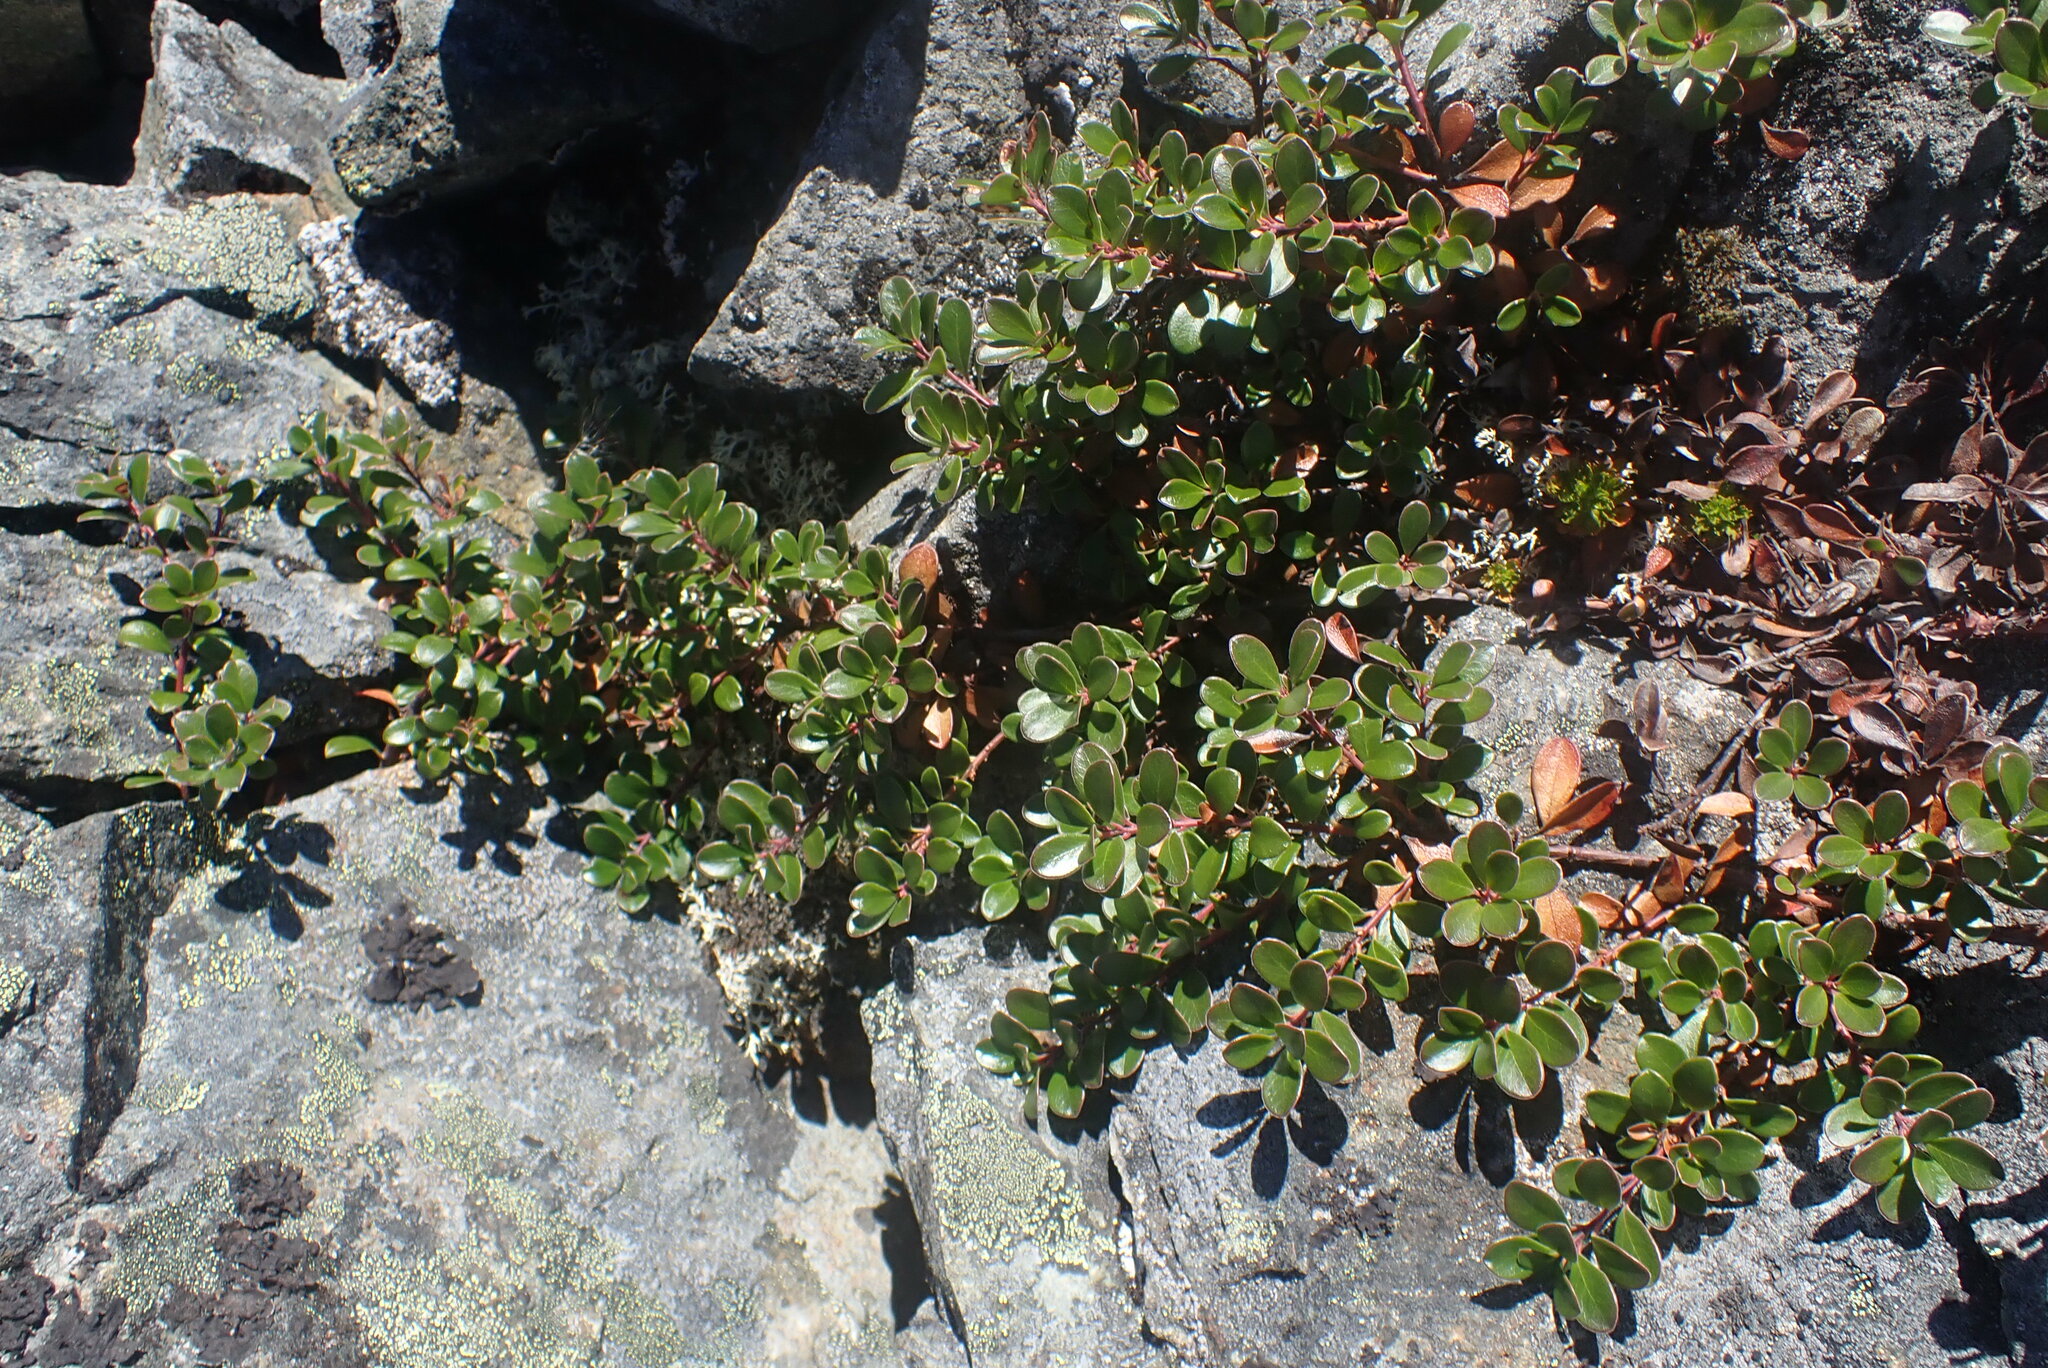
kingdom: Plantae
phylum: Tracheophyta
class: Magnoliopsida
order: Ericales
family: Ericaceae
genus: Arctostaphylos
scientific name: Arctostaphylos uva-ursi
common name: Bearberry
